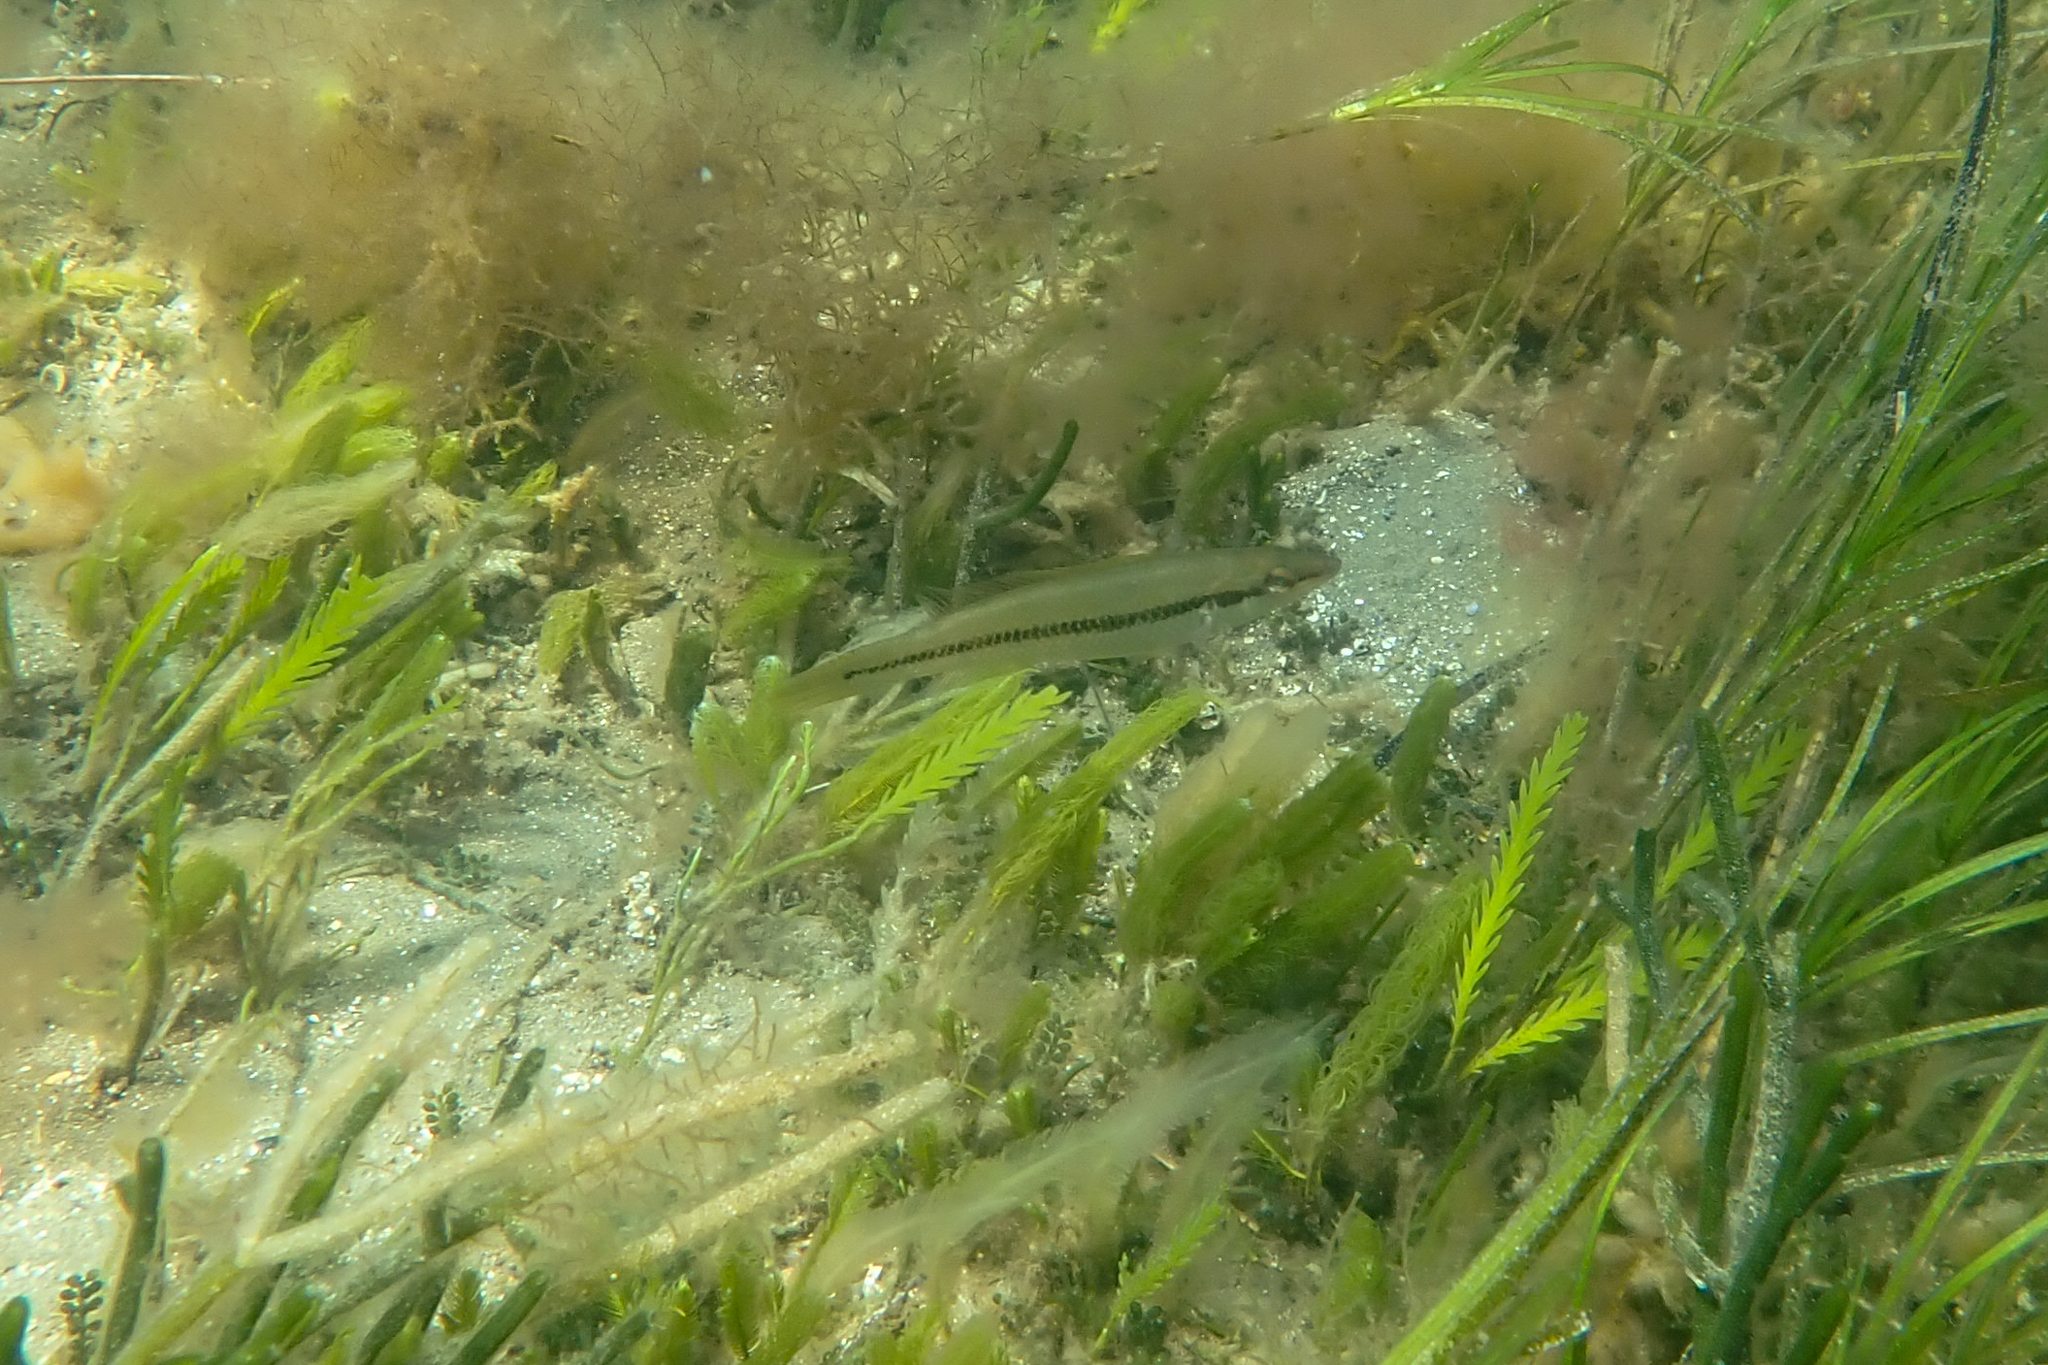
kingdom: Animalia
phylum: Chordata
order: Perciformes
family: Odacidae
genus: Neoodax
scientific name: Neoodax balteatus
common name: Ground mullet
